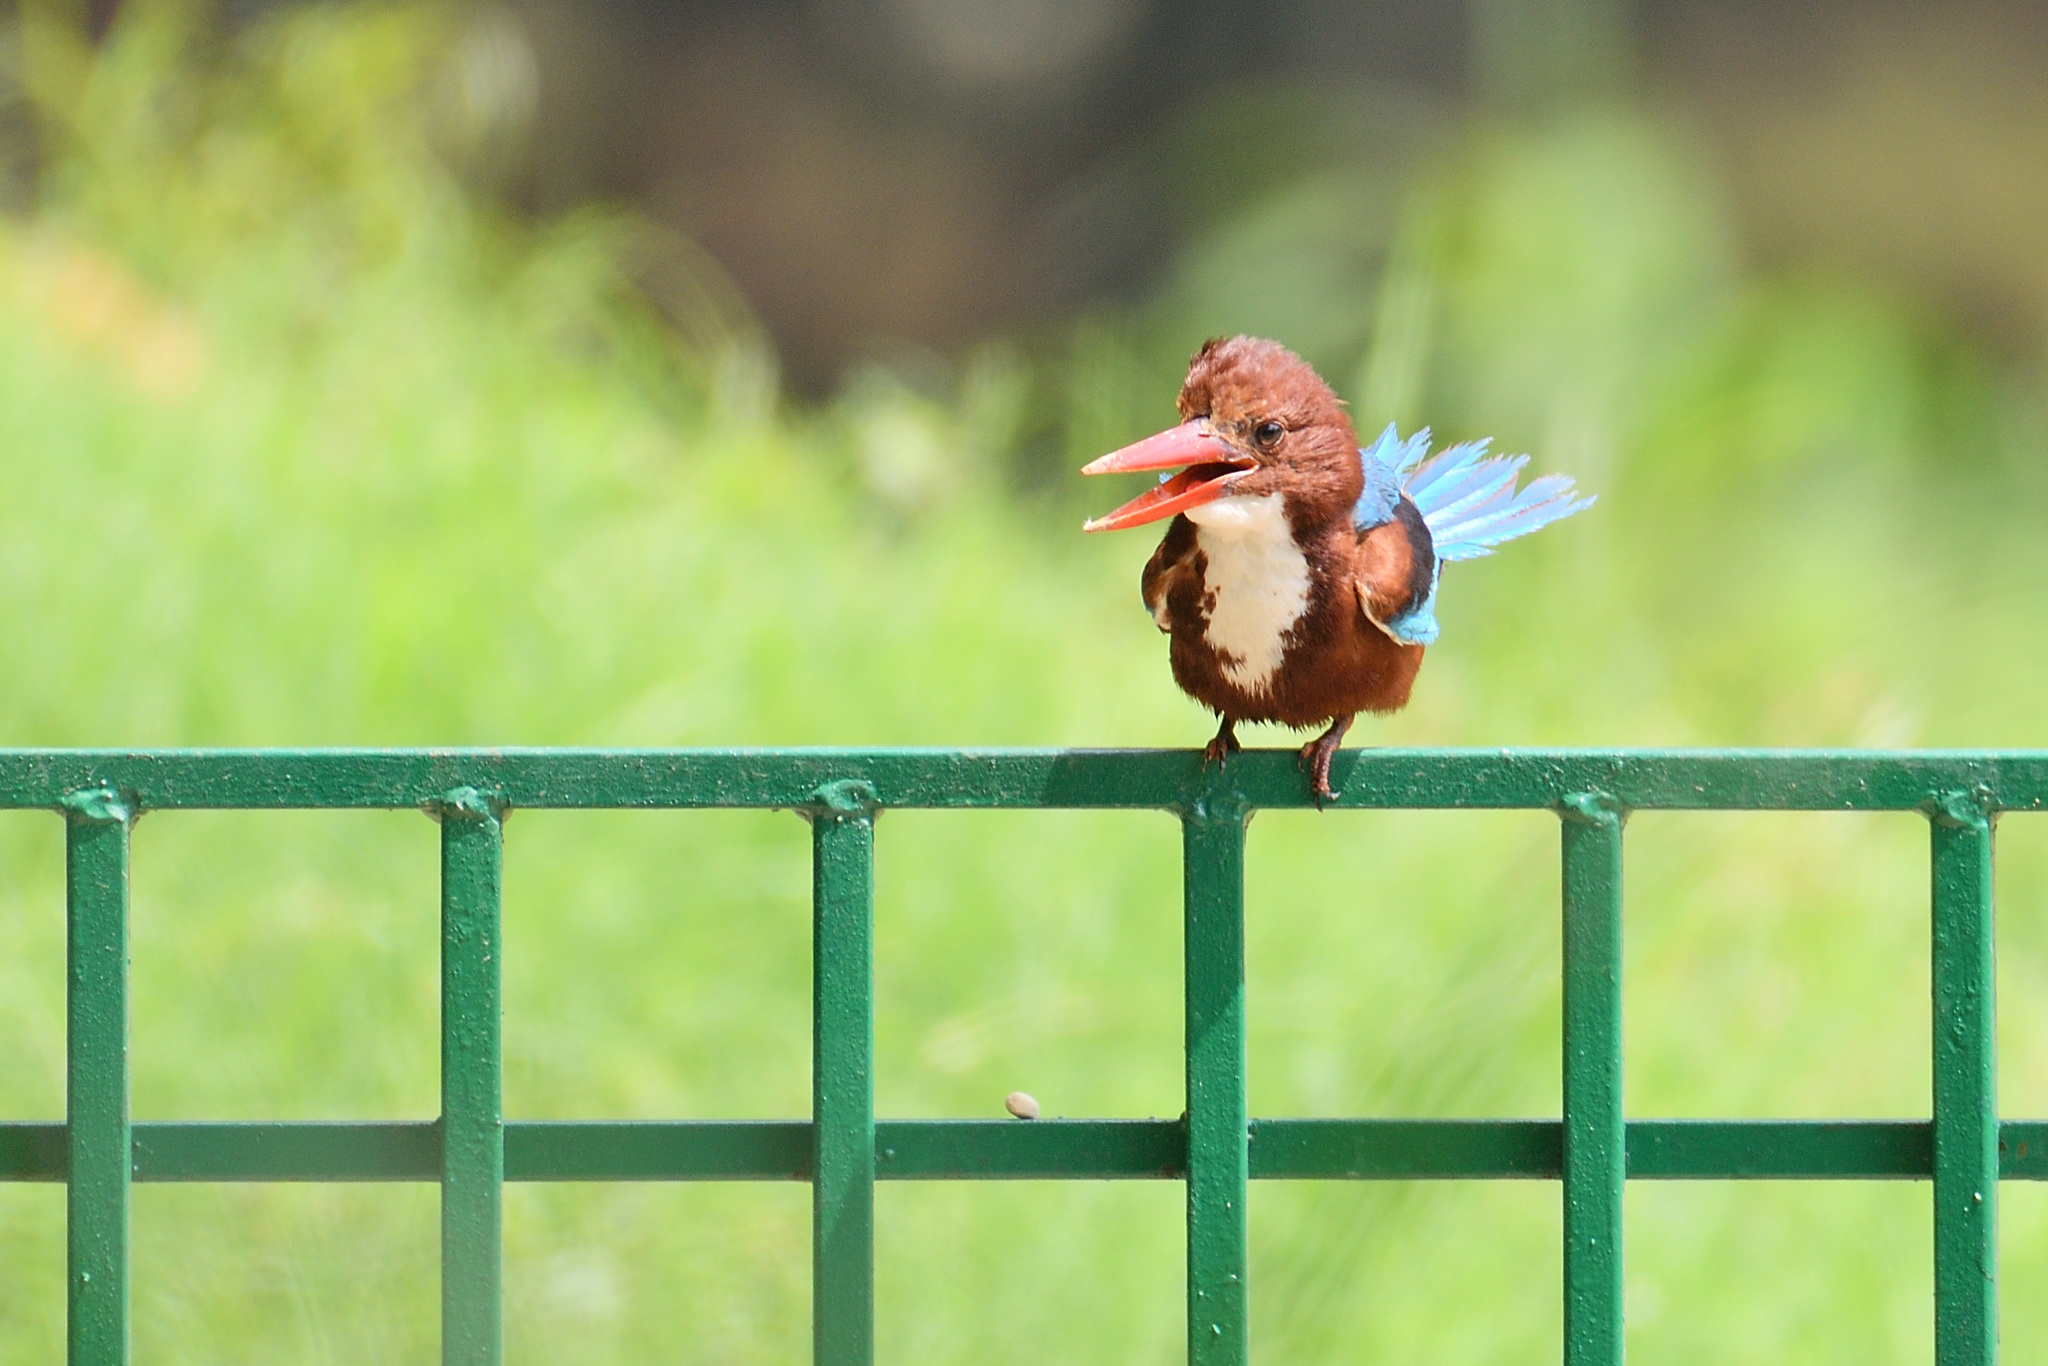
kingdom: Animalia
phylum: Chordata
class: Aves
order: Coraciiformes
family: Alcedinidae
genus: Halcyon
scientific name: Halcyon smyrnensis
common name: White-throated kingfisher
